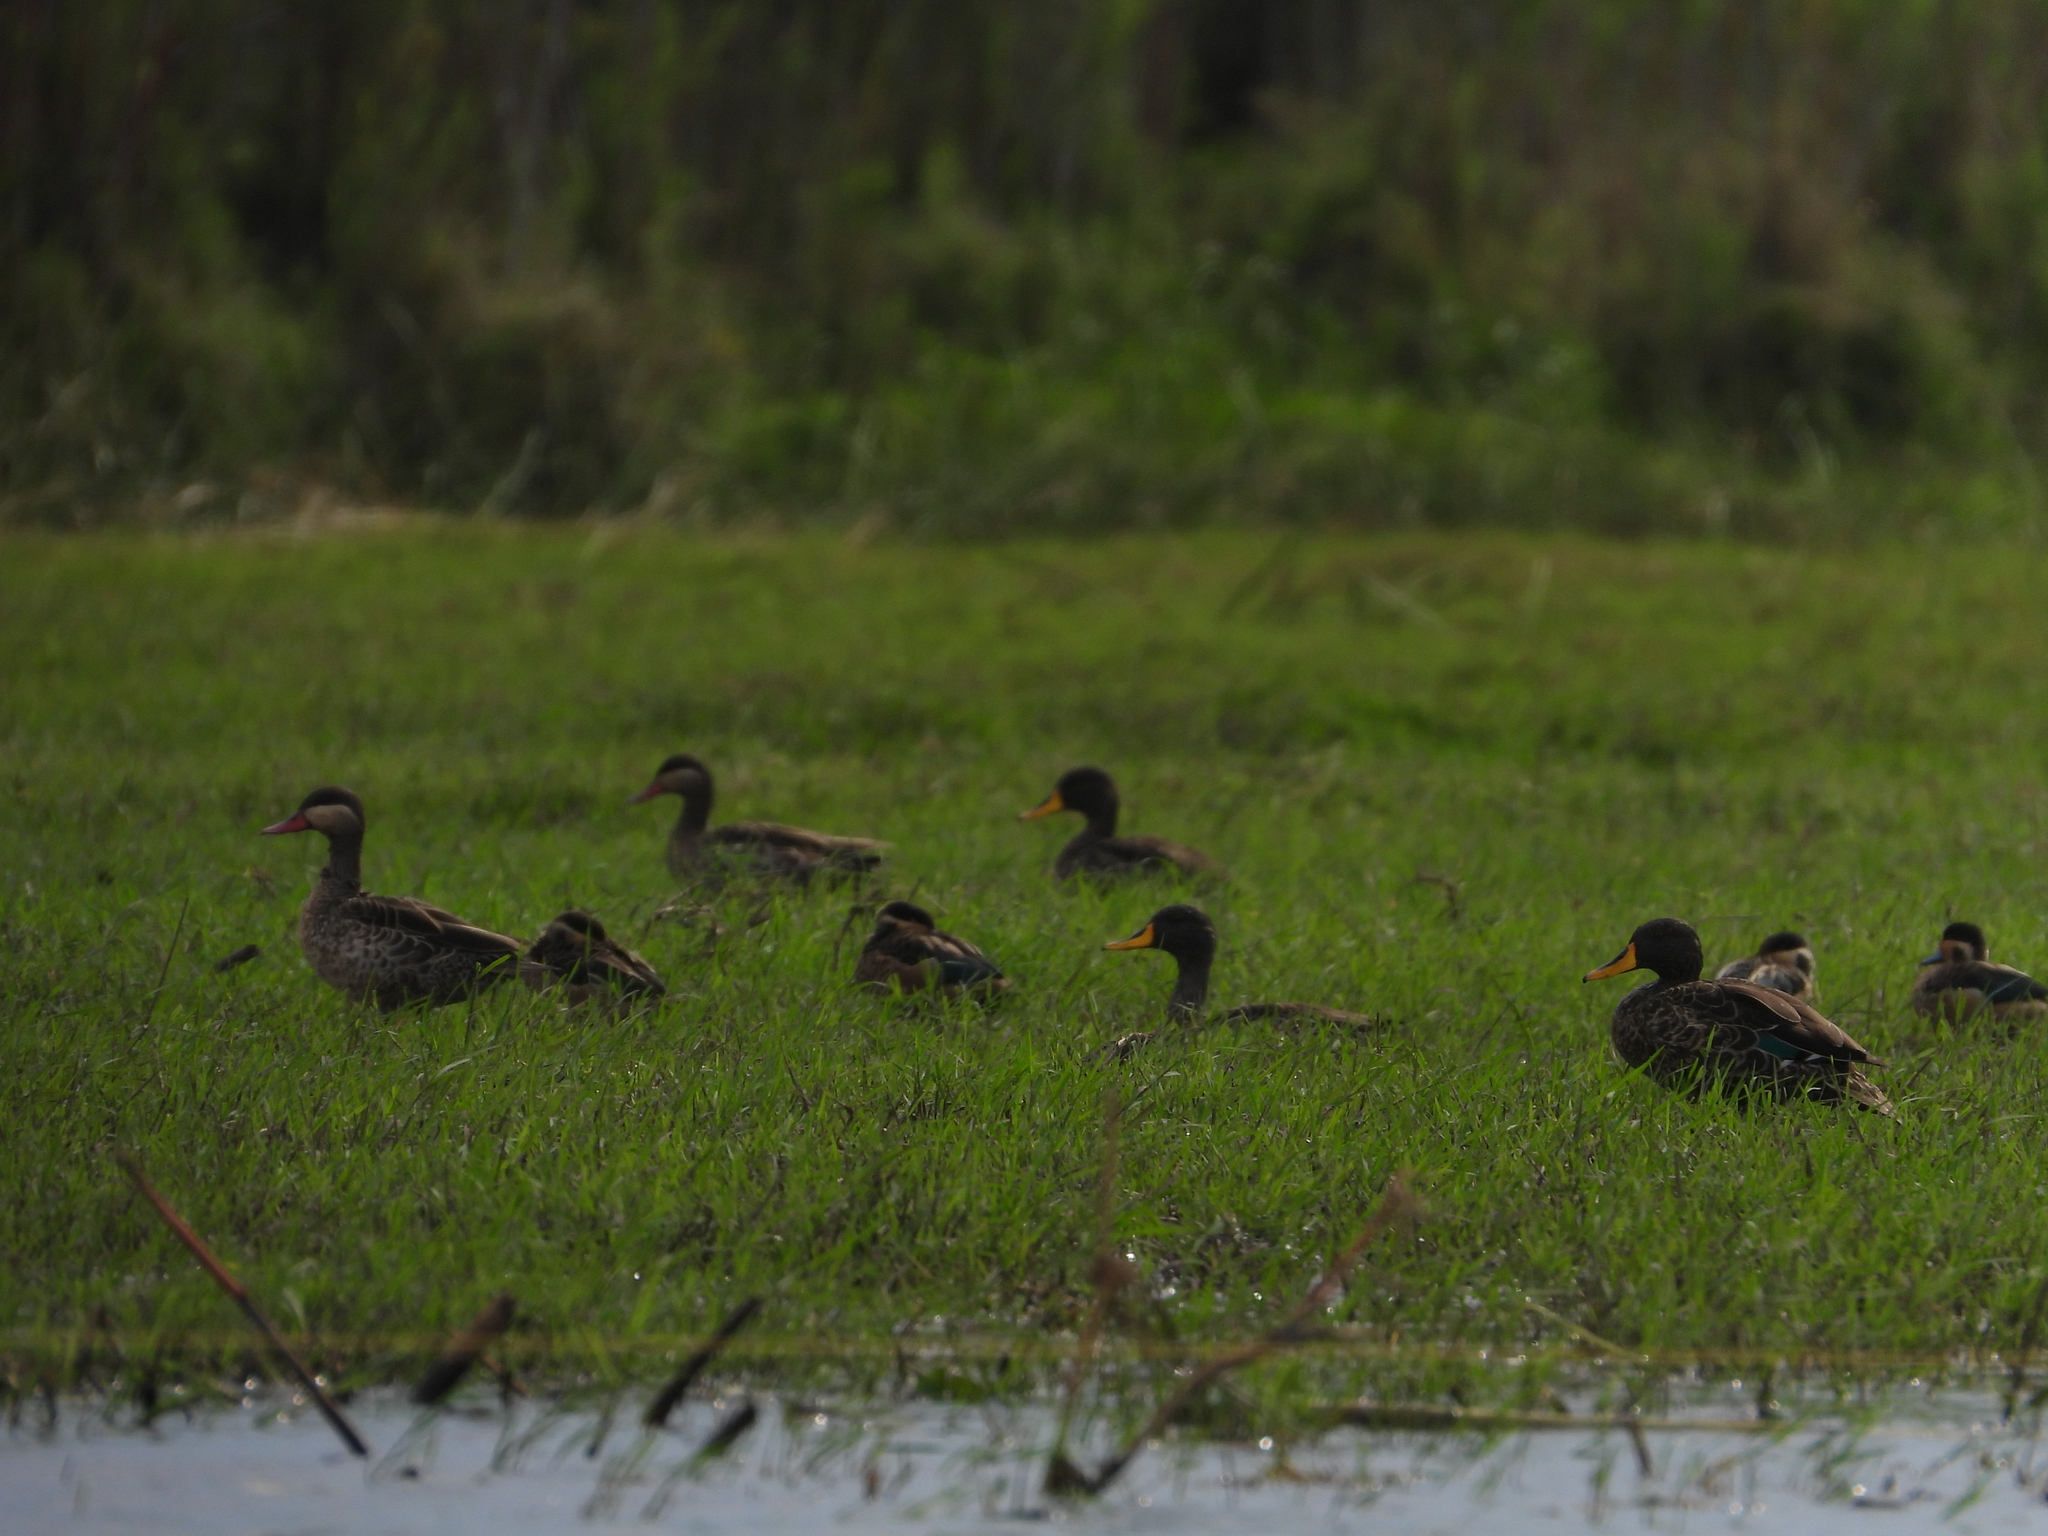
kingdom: Animalia
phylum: Chordata
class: Aves
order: Anseriformes
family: Anatidae
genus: Anas
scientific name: Anas erythrorhyncha
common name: Red-billed teal
